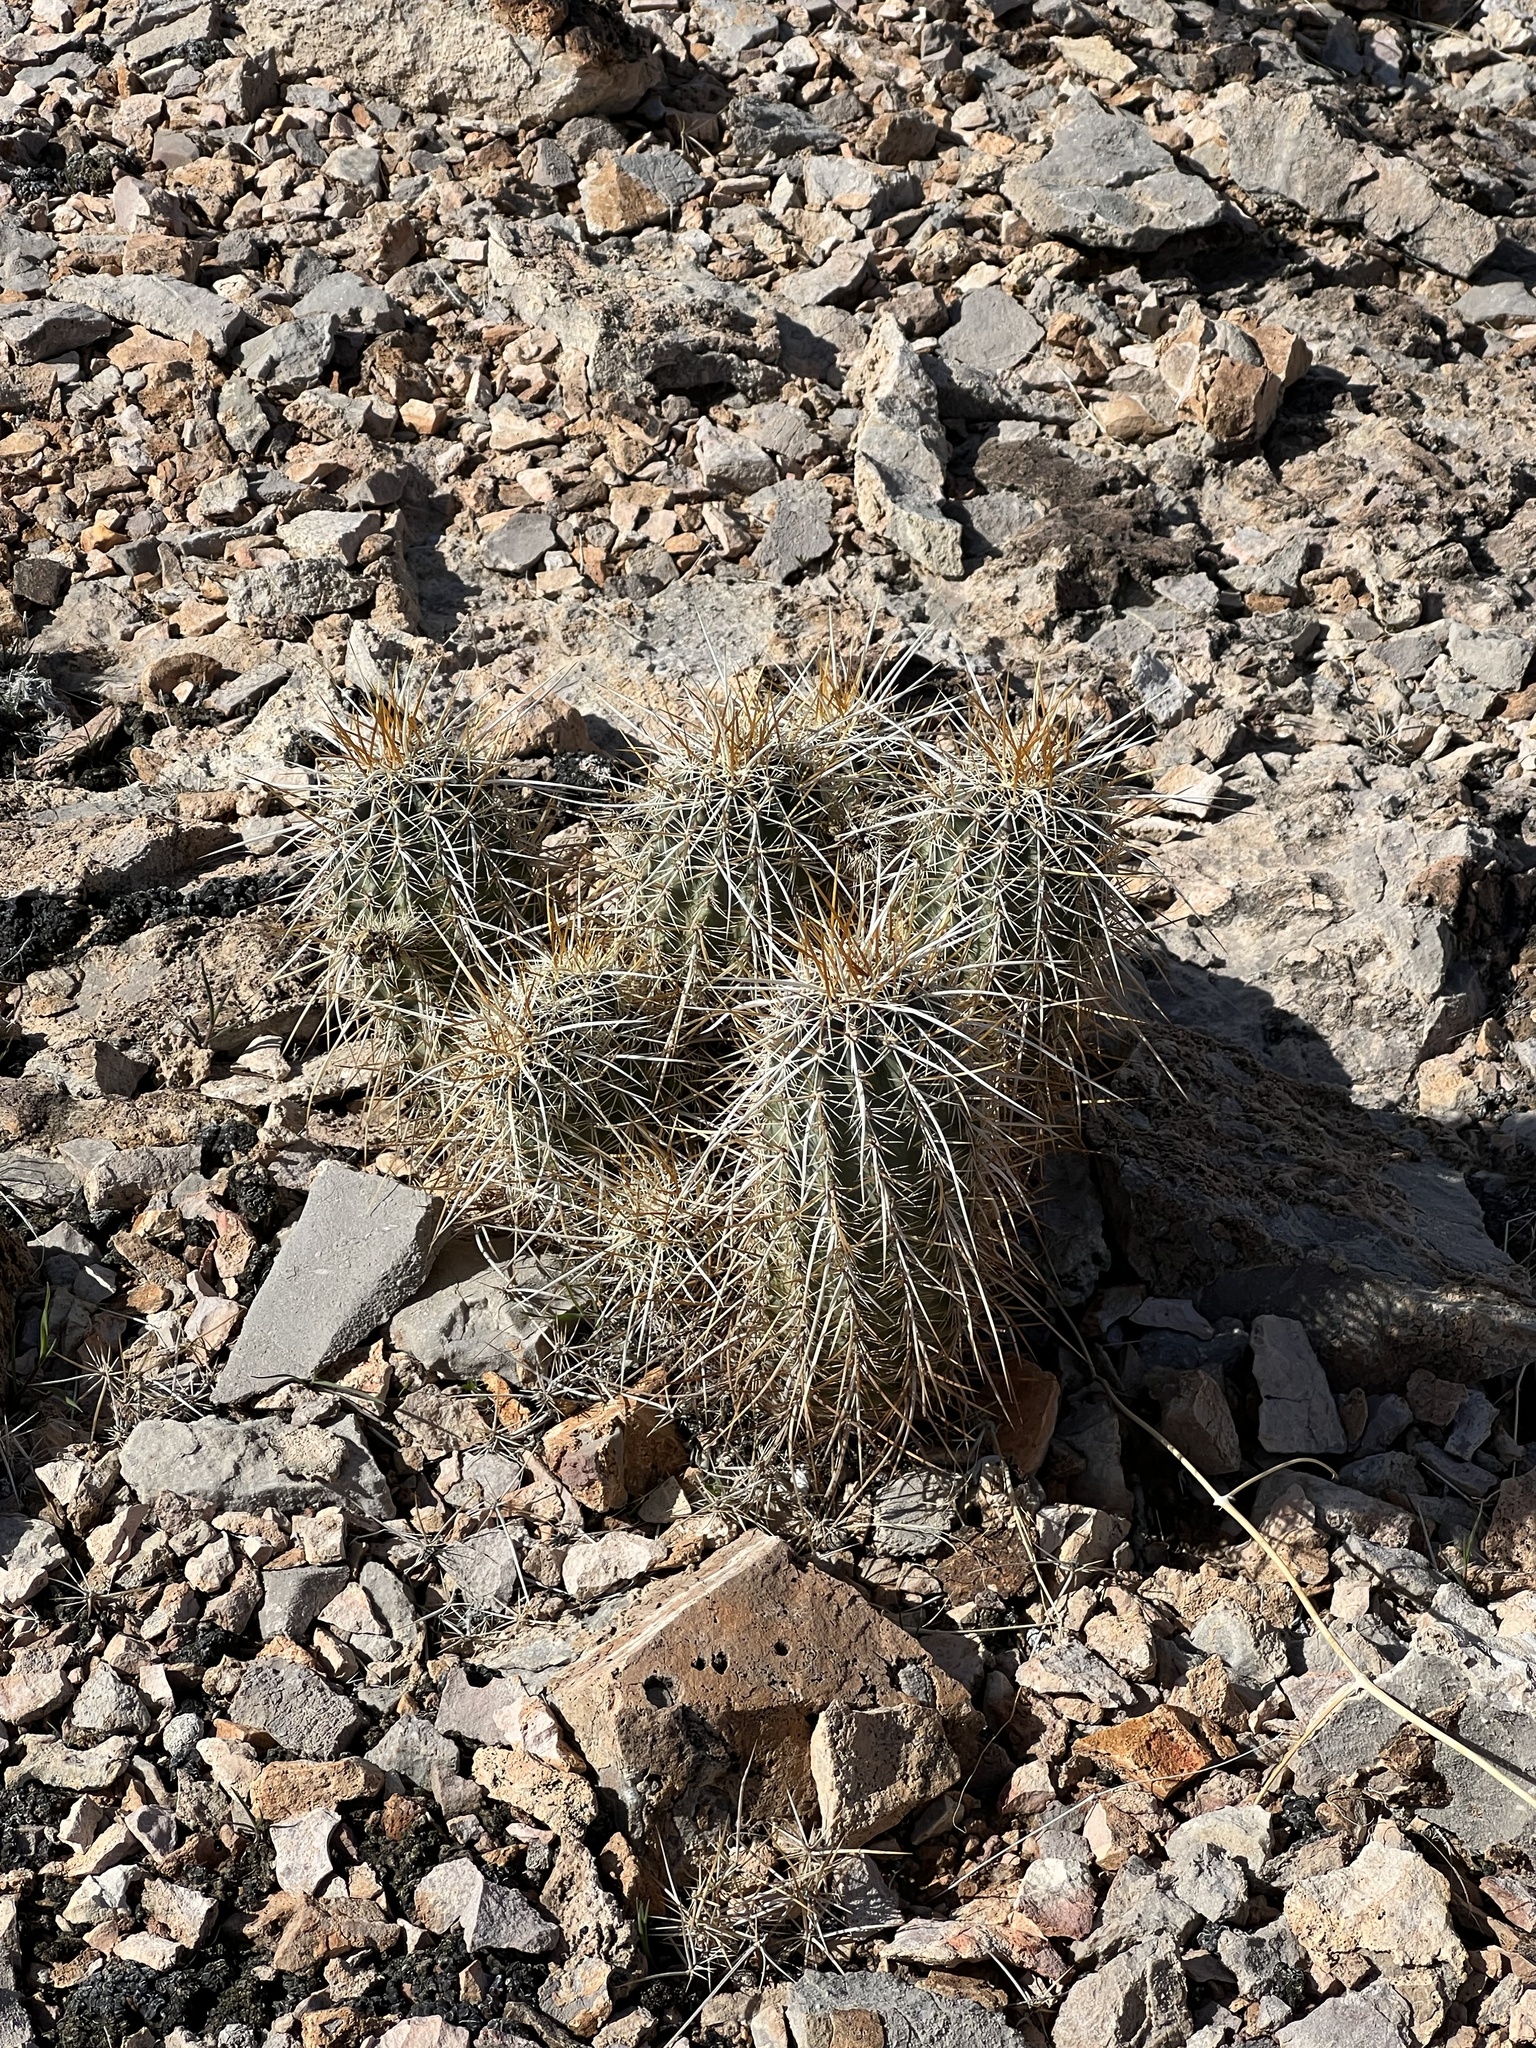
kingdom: Plantae
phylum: Tracheophyta
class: Magnoliopsida
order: Caryophyllales
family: Cactaceae
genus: Echinocereus
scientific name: Echinocereus engelmannii
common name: Engelmann's hedgehog cactus
